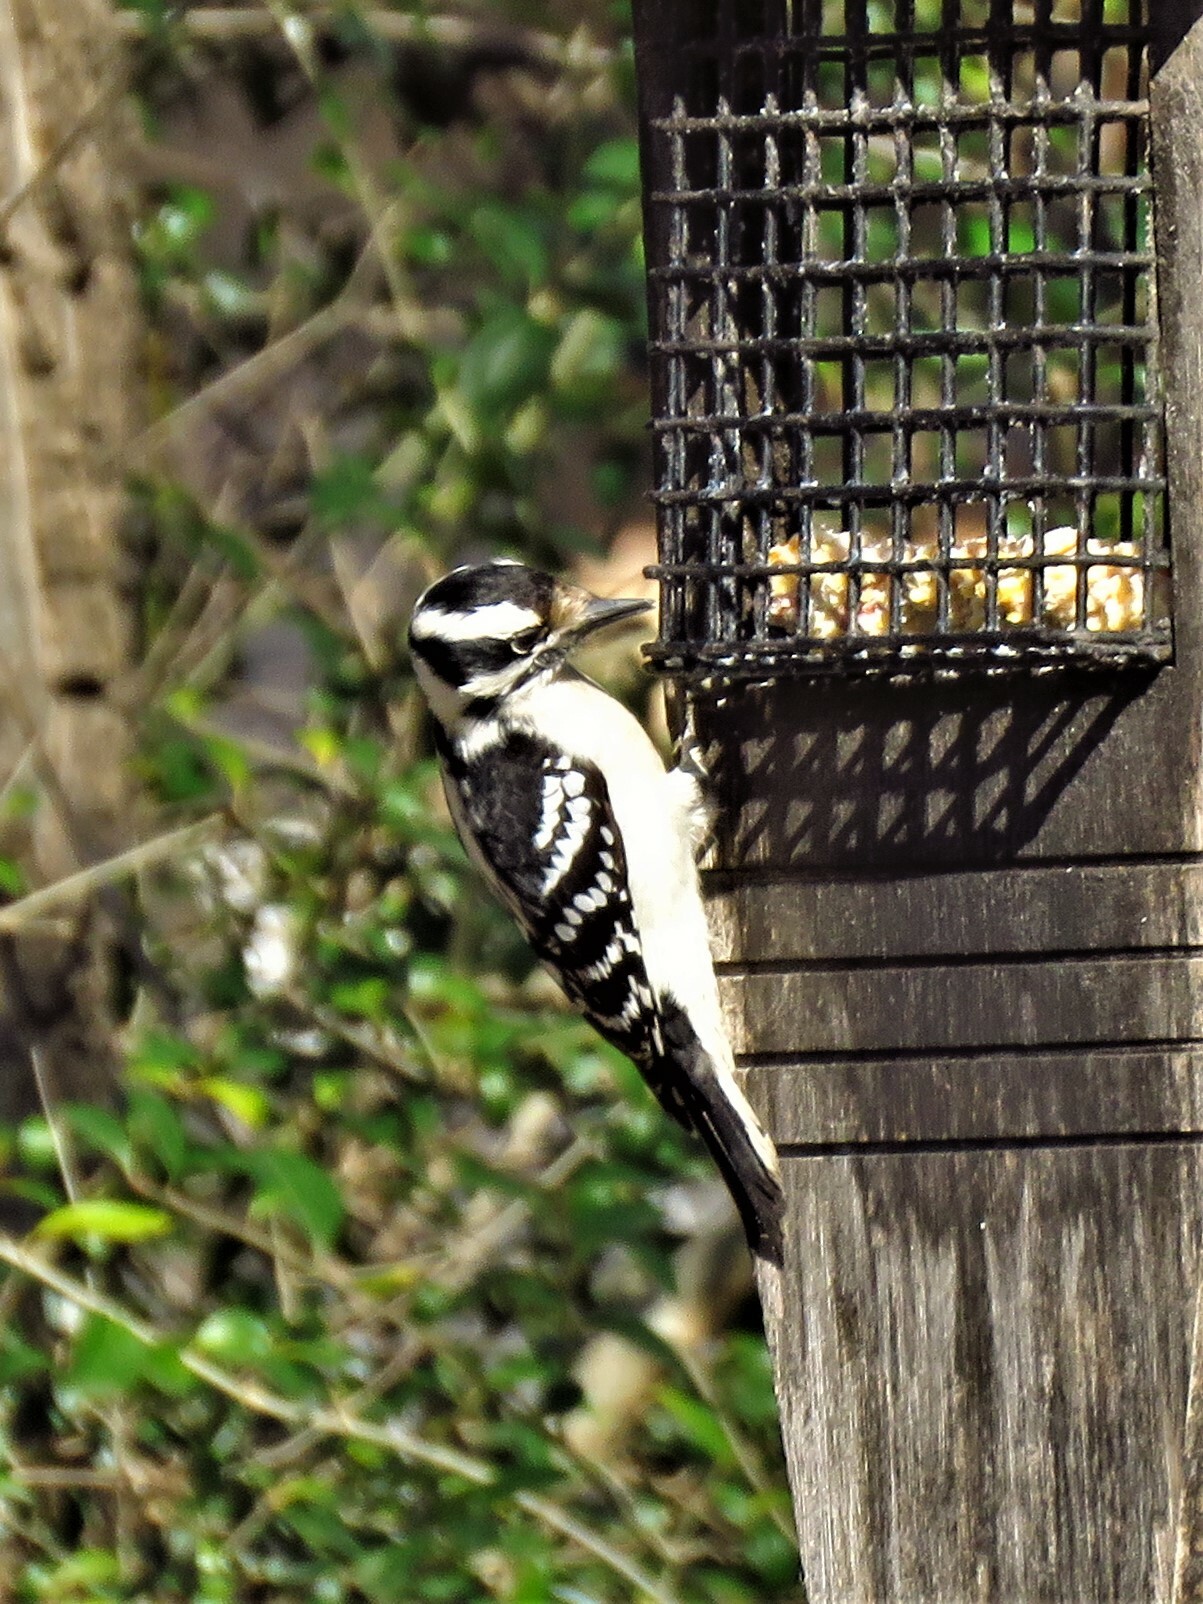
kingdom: Animalia
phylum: Chordata
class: Aves
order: Piciformes
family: Picidae
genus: Dryobates
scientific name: Dryobates pubescens
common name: Downy woodpecker
